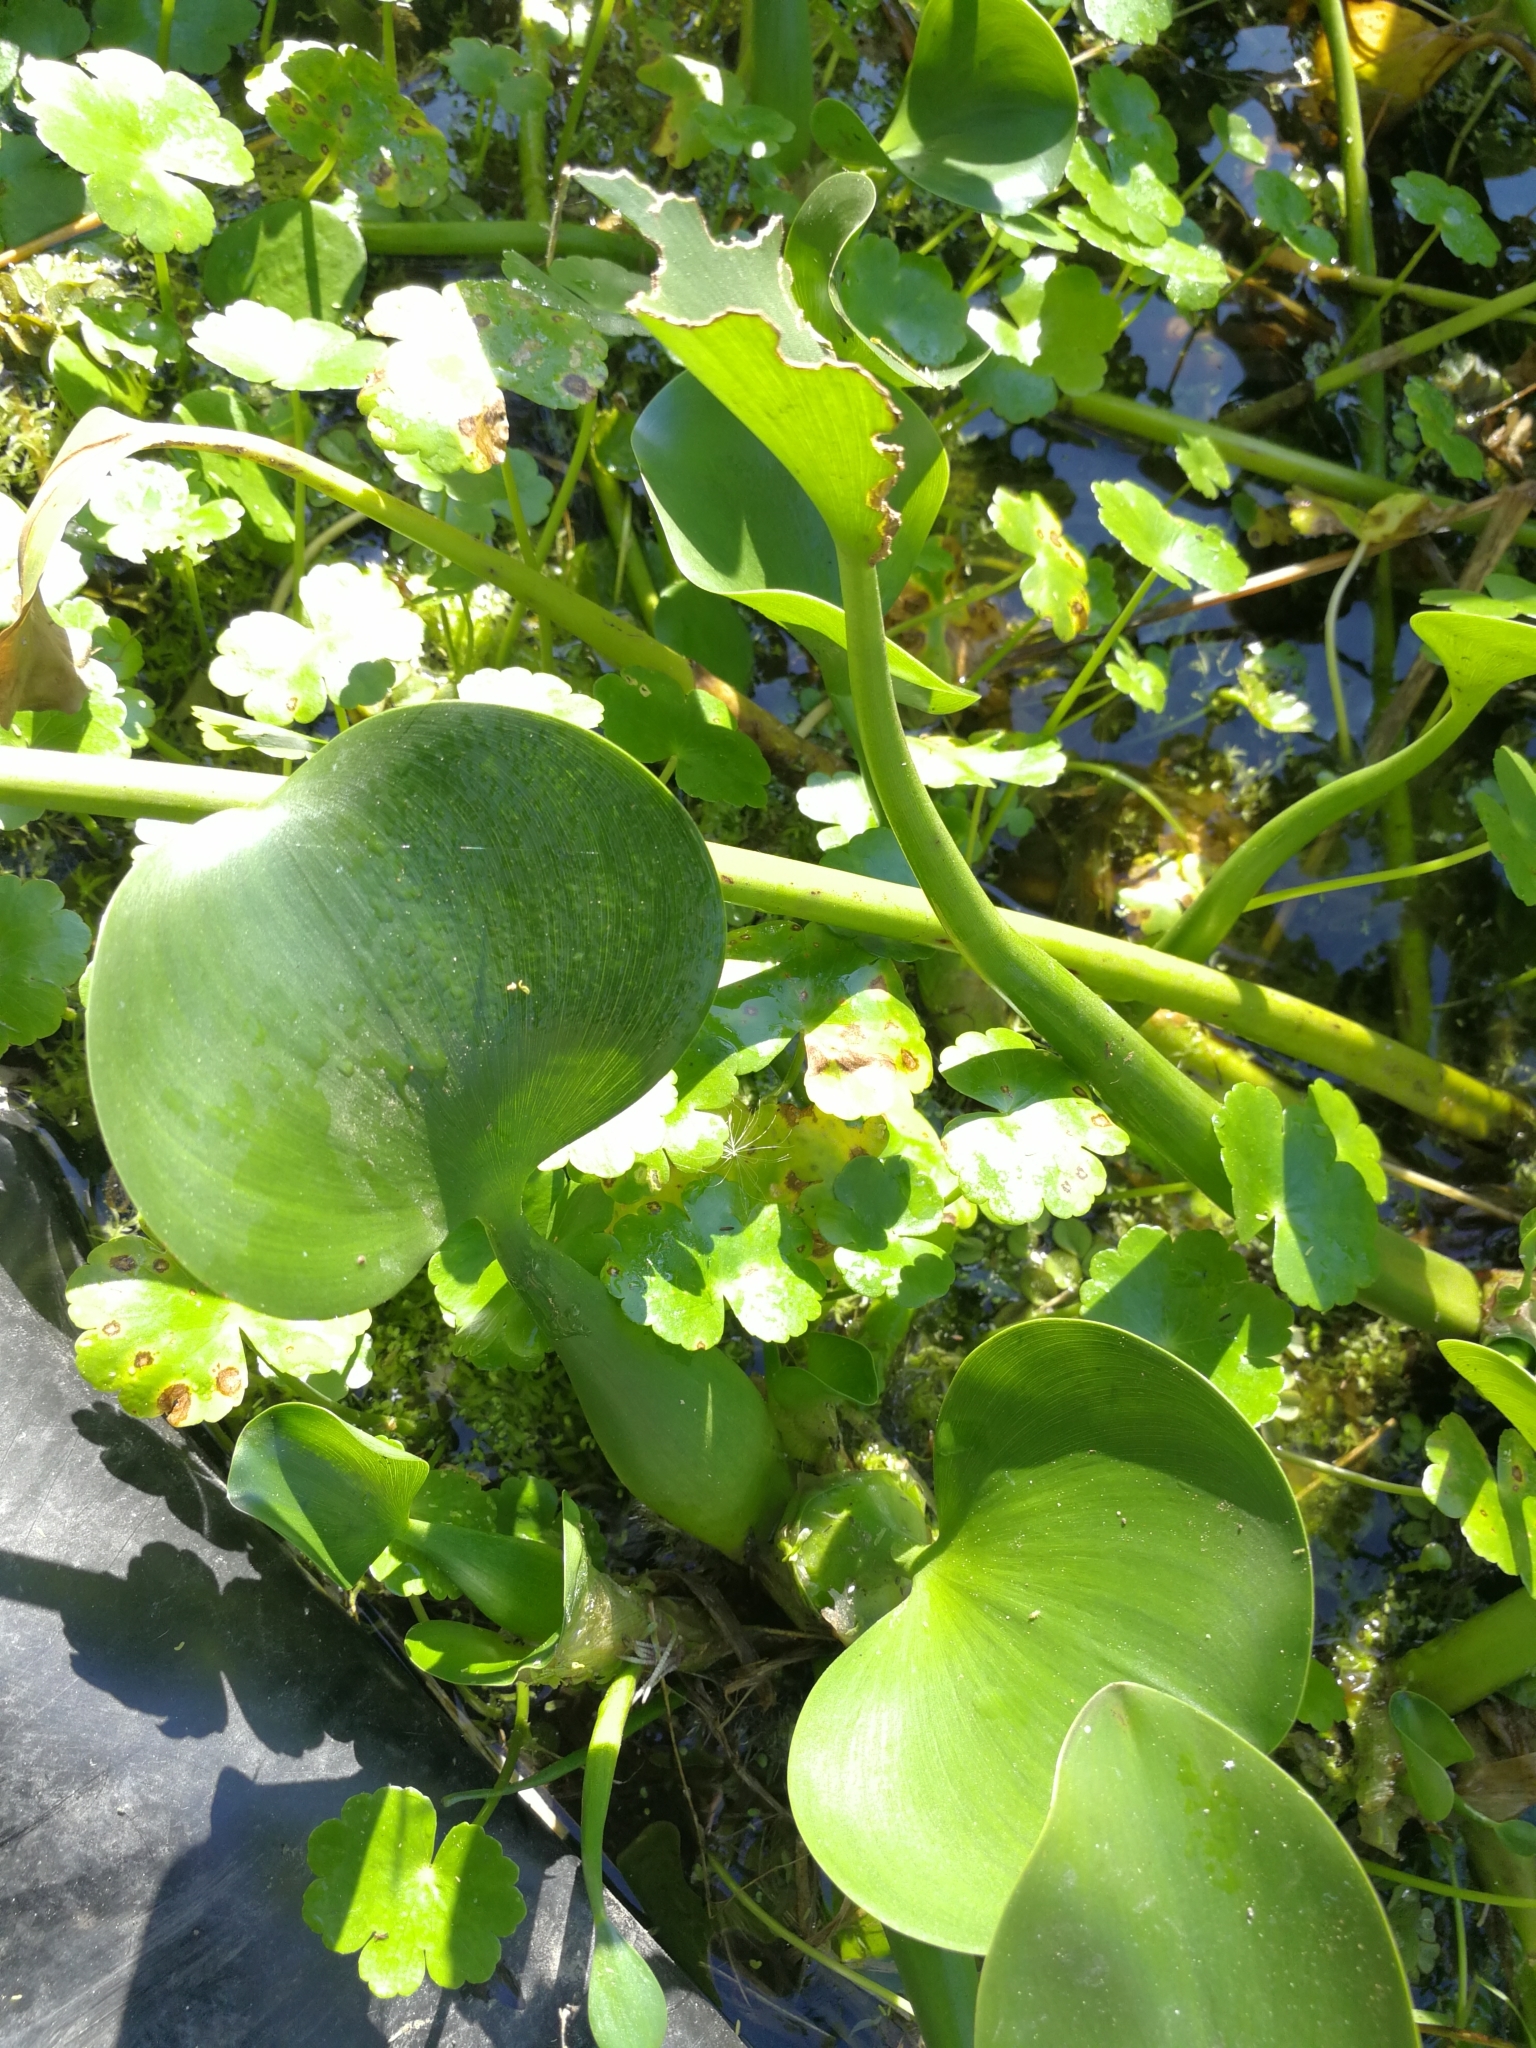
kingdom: Plantae
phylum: Tracheophyta
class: Liliopsida
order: Commelinales
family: Pontederiaceae
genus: Pontederia
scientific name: Pontederia crassipes
